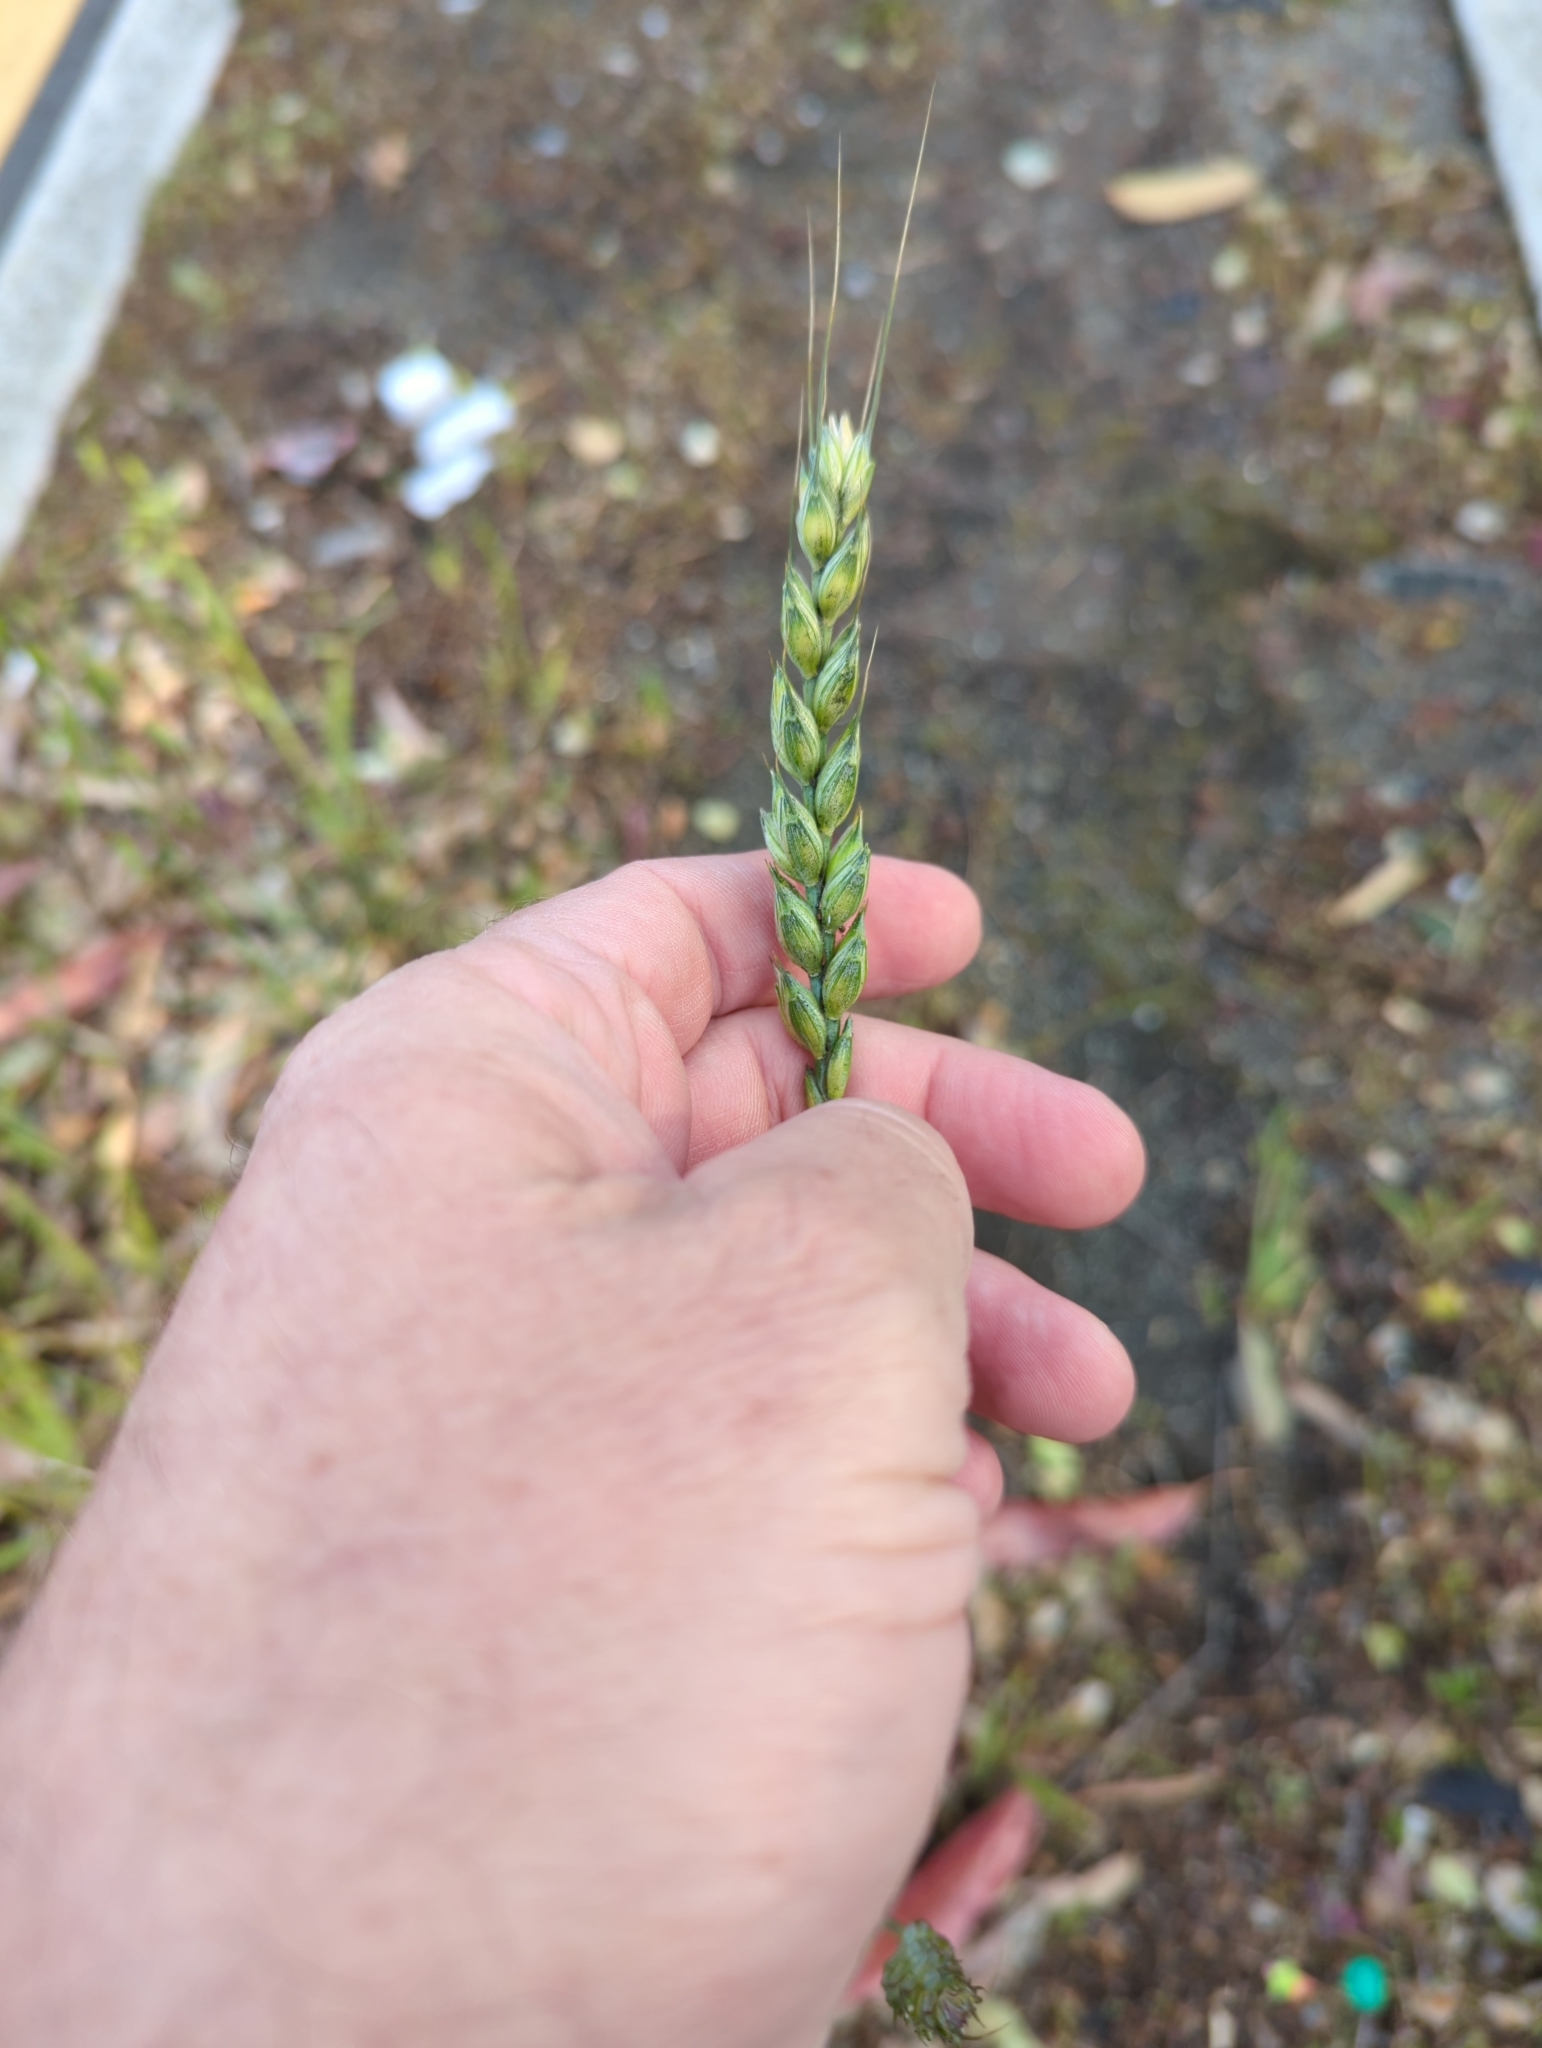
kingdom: Plantae
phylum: Tracheophyta
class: Liliopsida
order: Poales
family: Poaceae
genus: Triticum
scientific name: Triticum aestivum
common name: Common wheat
